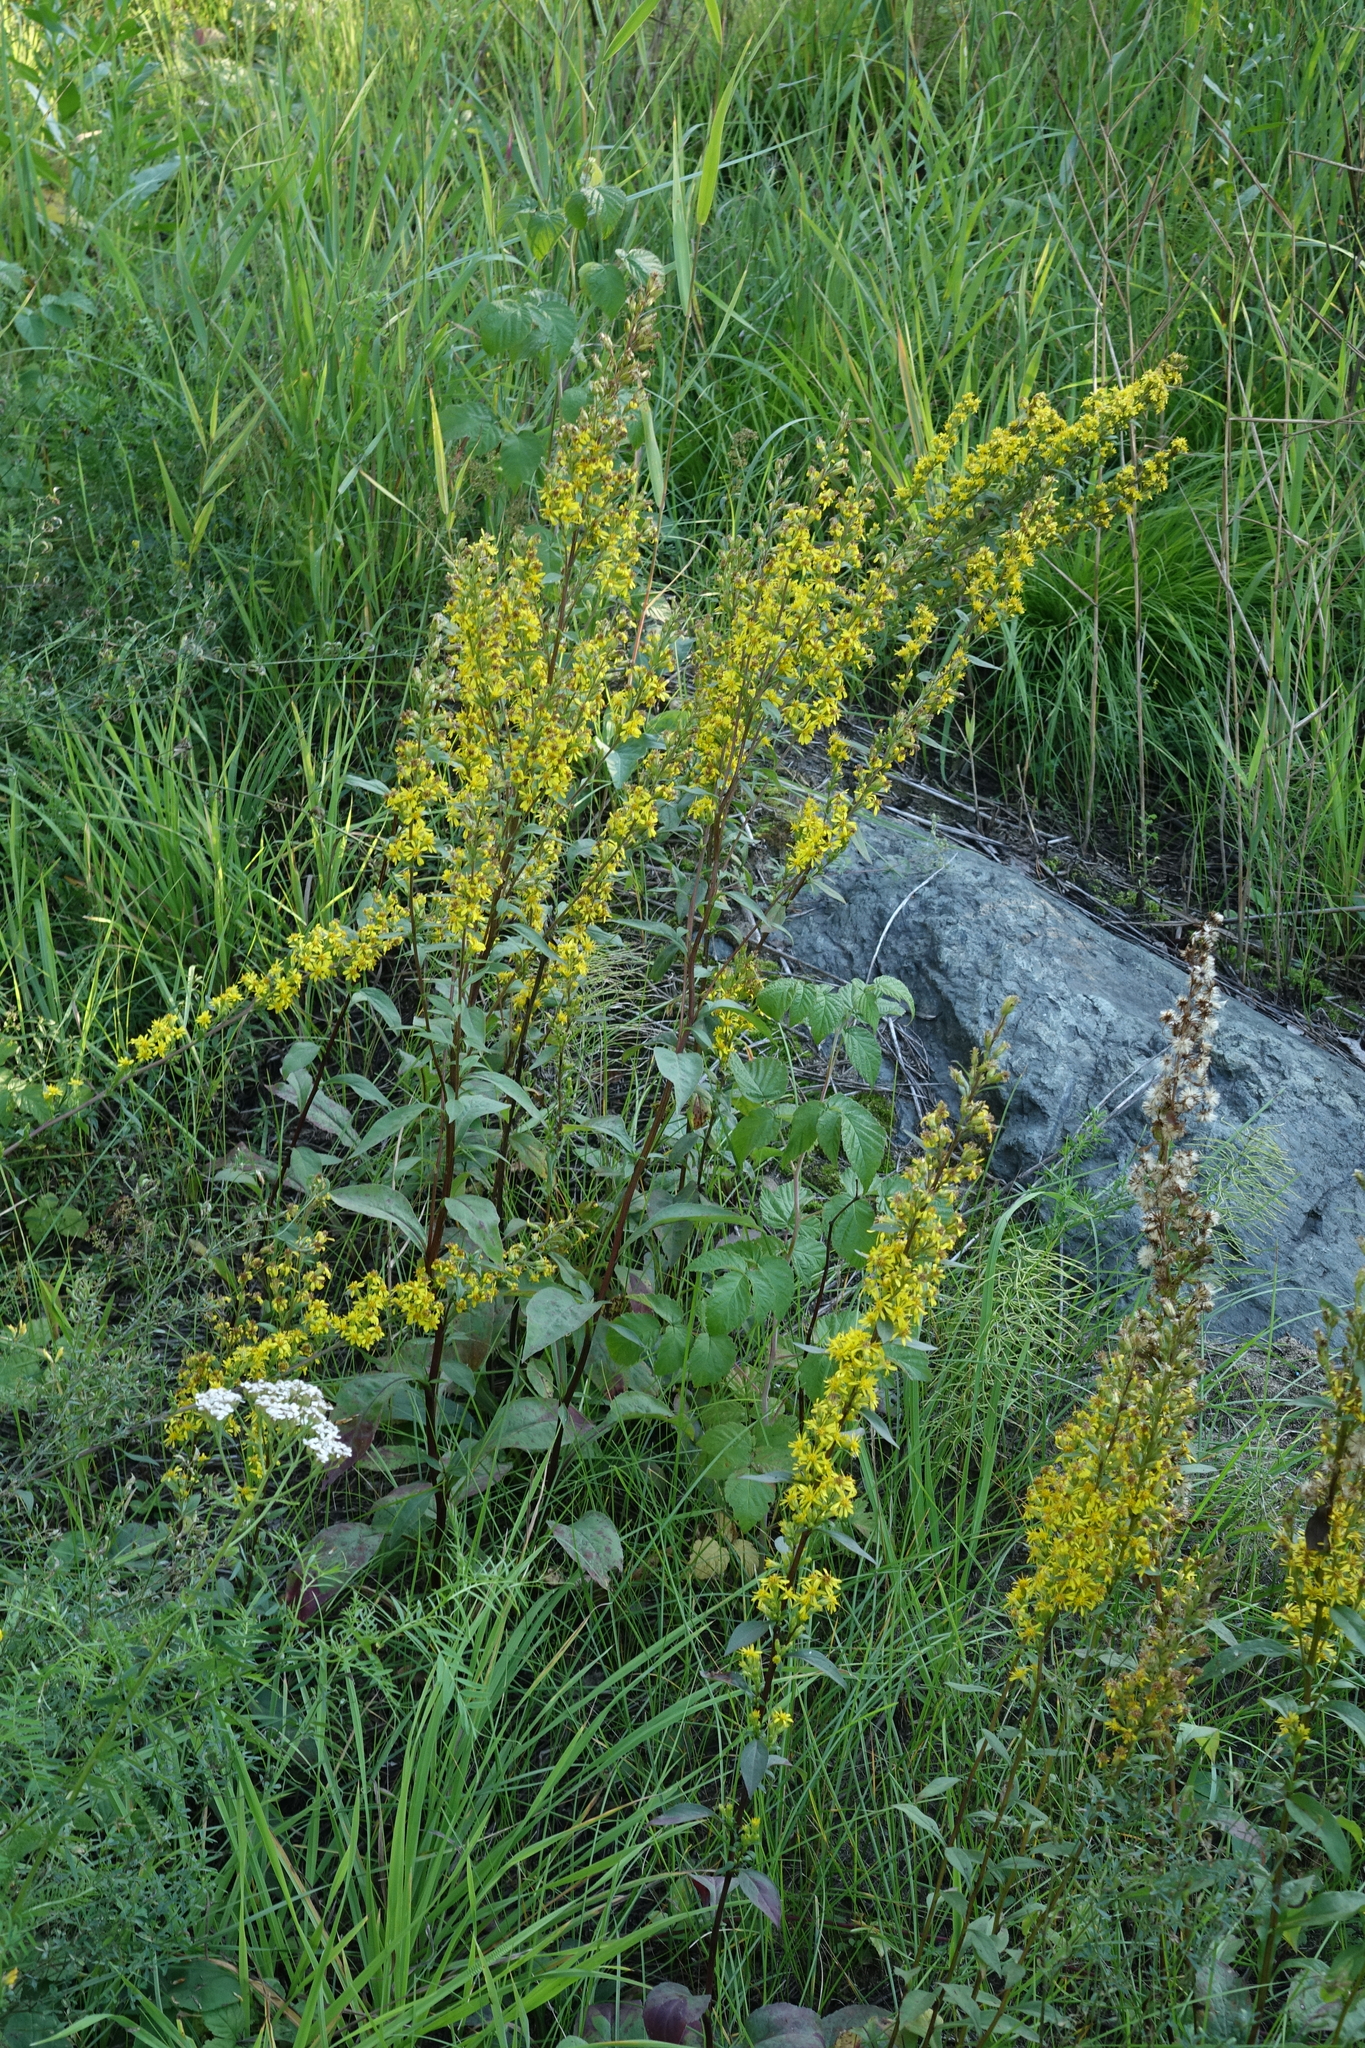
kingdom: Plantae
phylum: Tracheophyta
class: Magnoliopsida
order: Asterales
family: Asteraceae
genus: Solidago
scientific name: Solidago virgaurea
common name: Goldenrod
